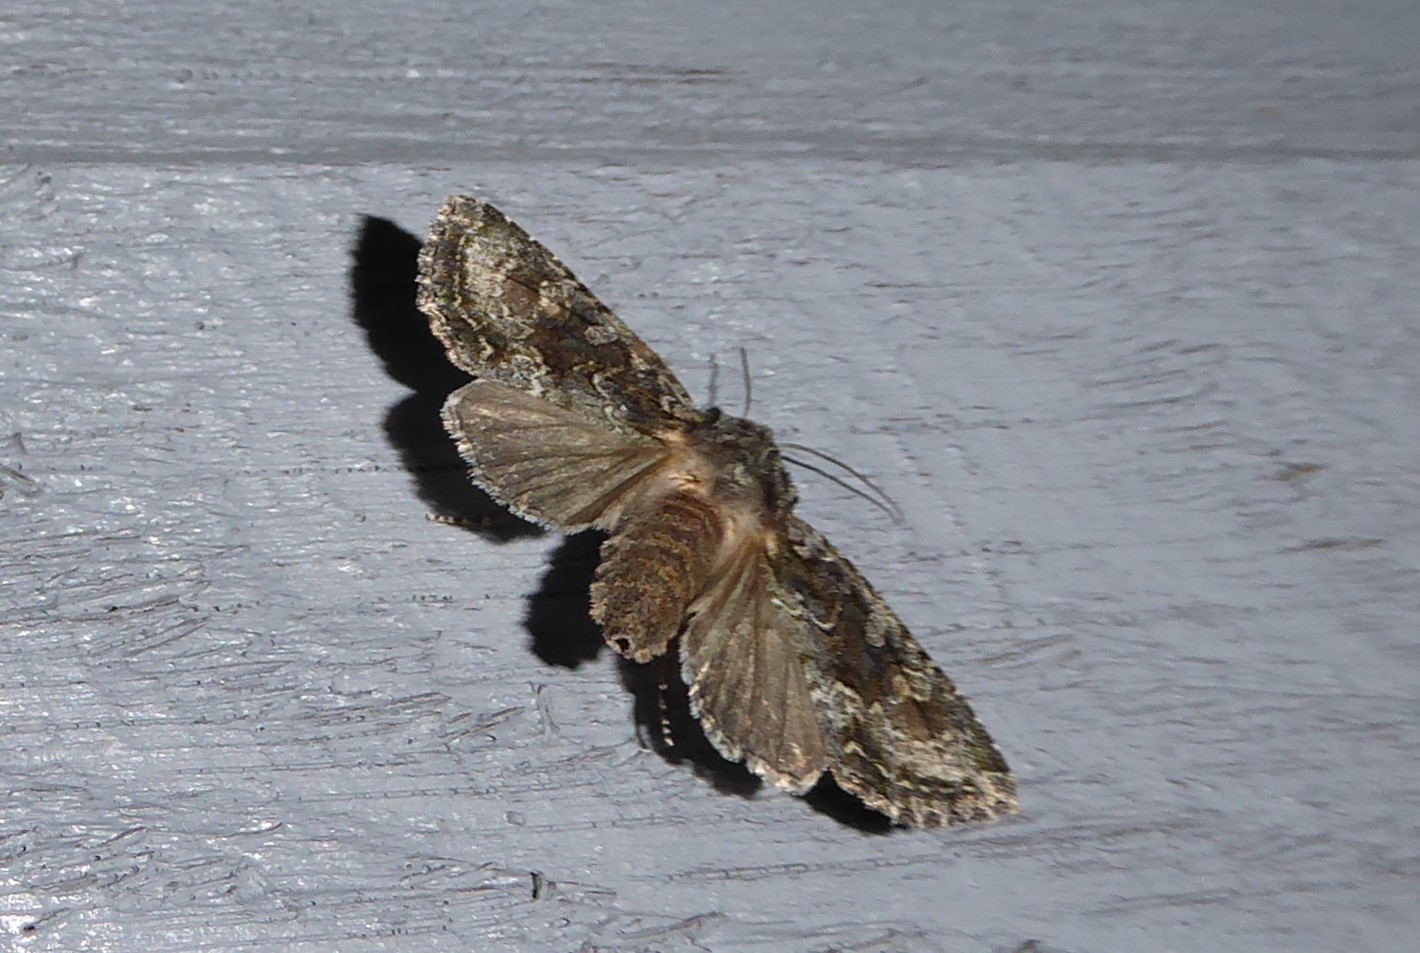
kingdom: Animalia
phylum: Arthropoda
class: Insecta
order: Lepidoptera
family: Noctuidae
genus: Ichneutica
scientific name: Ichneutica mutans
